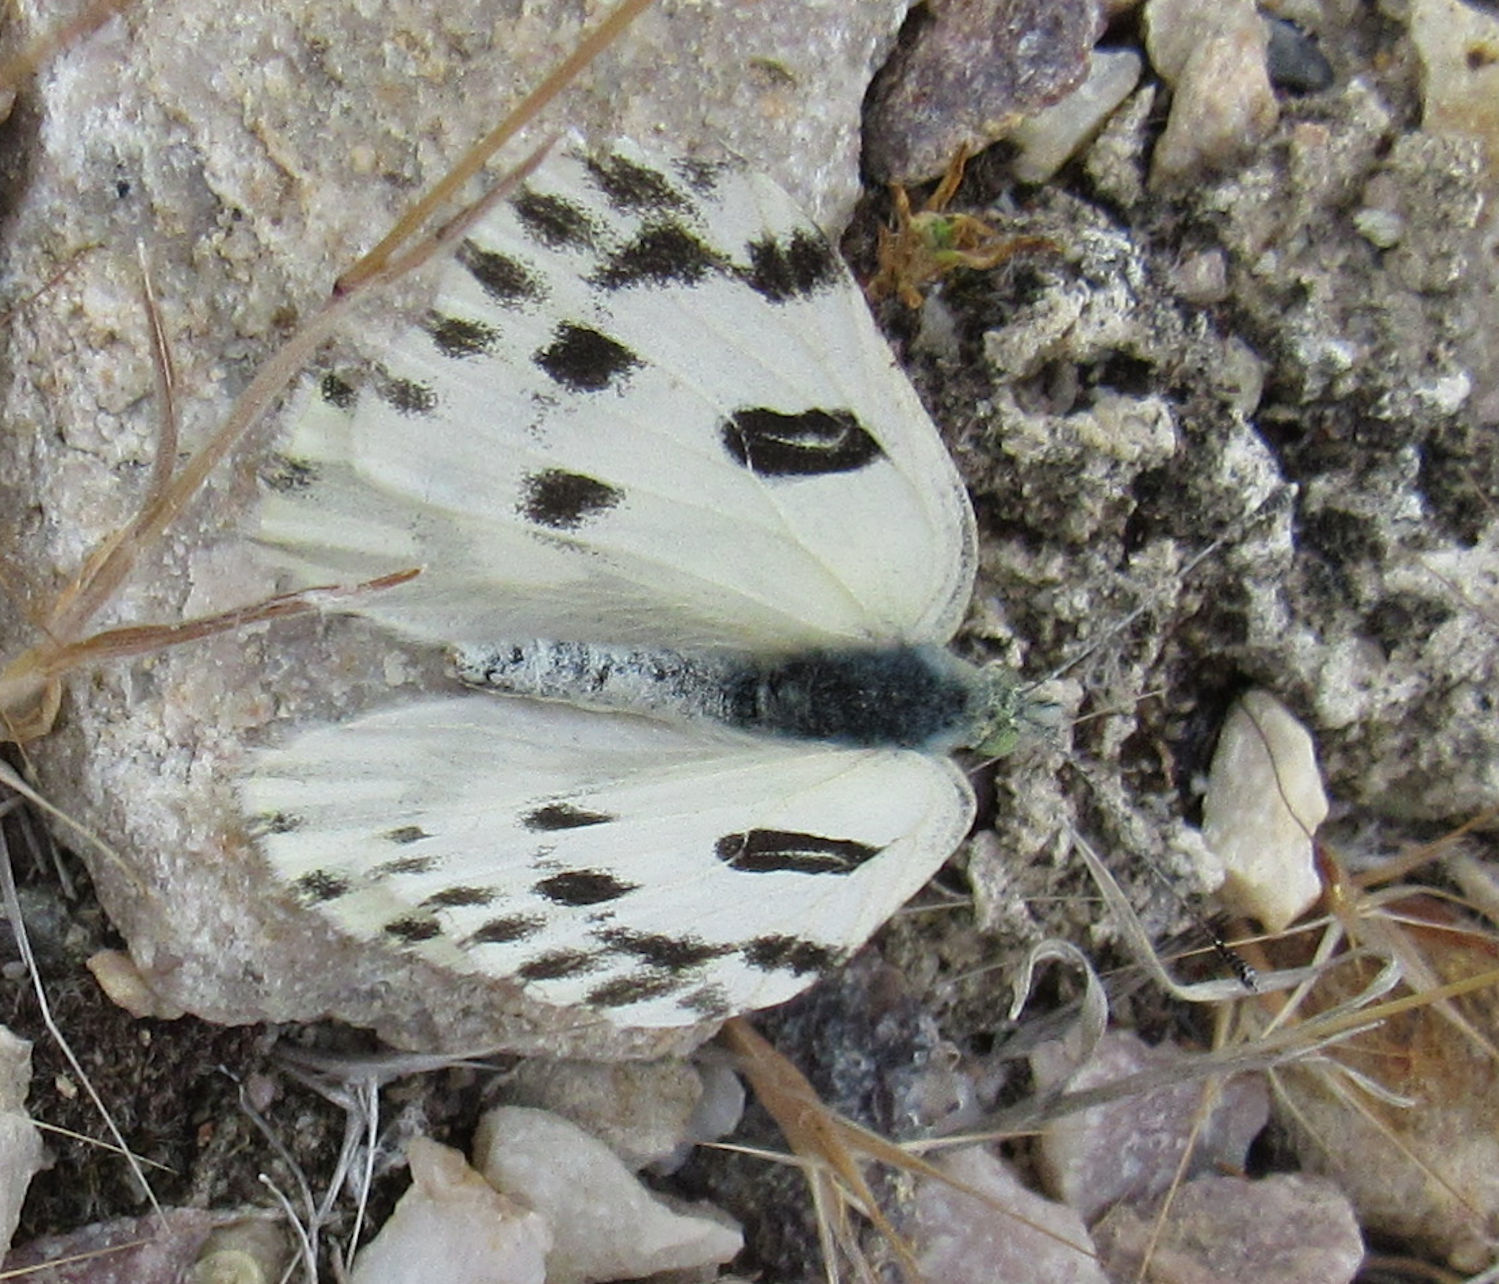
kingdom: Animalia
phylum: Arthropoda
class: Insecta
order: Lepidoptera
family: Pieridae
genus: Pontia
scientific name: Pontia beckerii
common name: Becker's white
